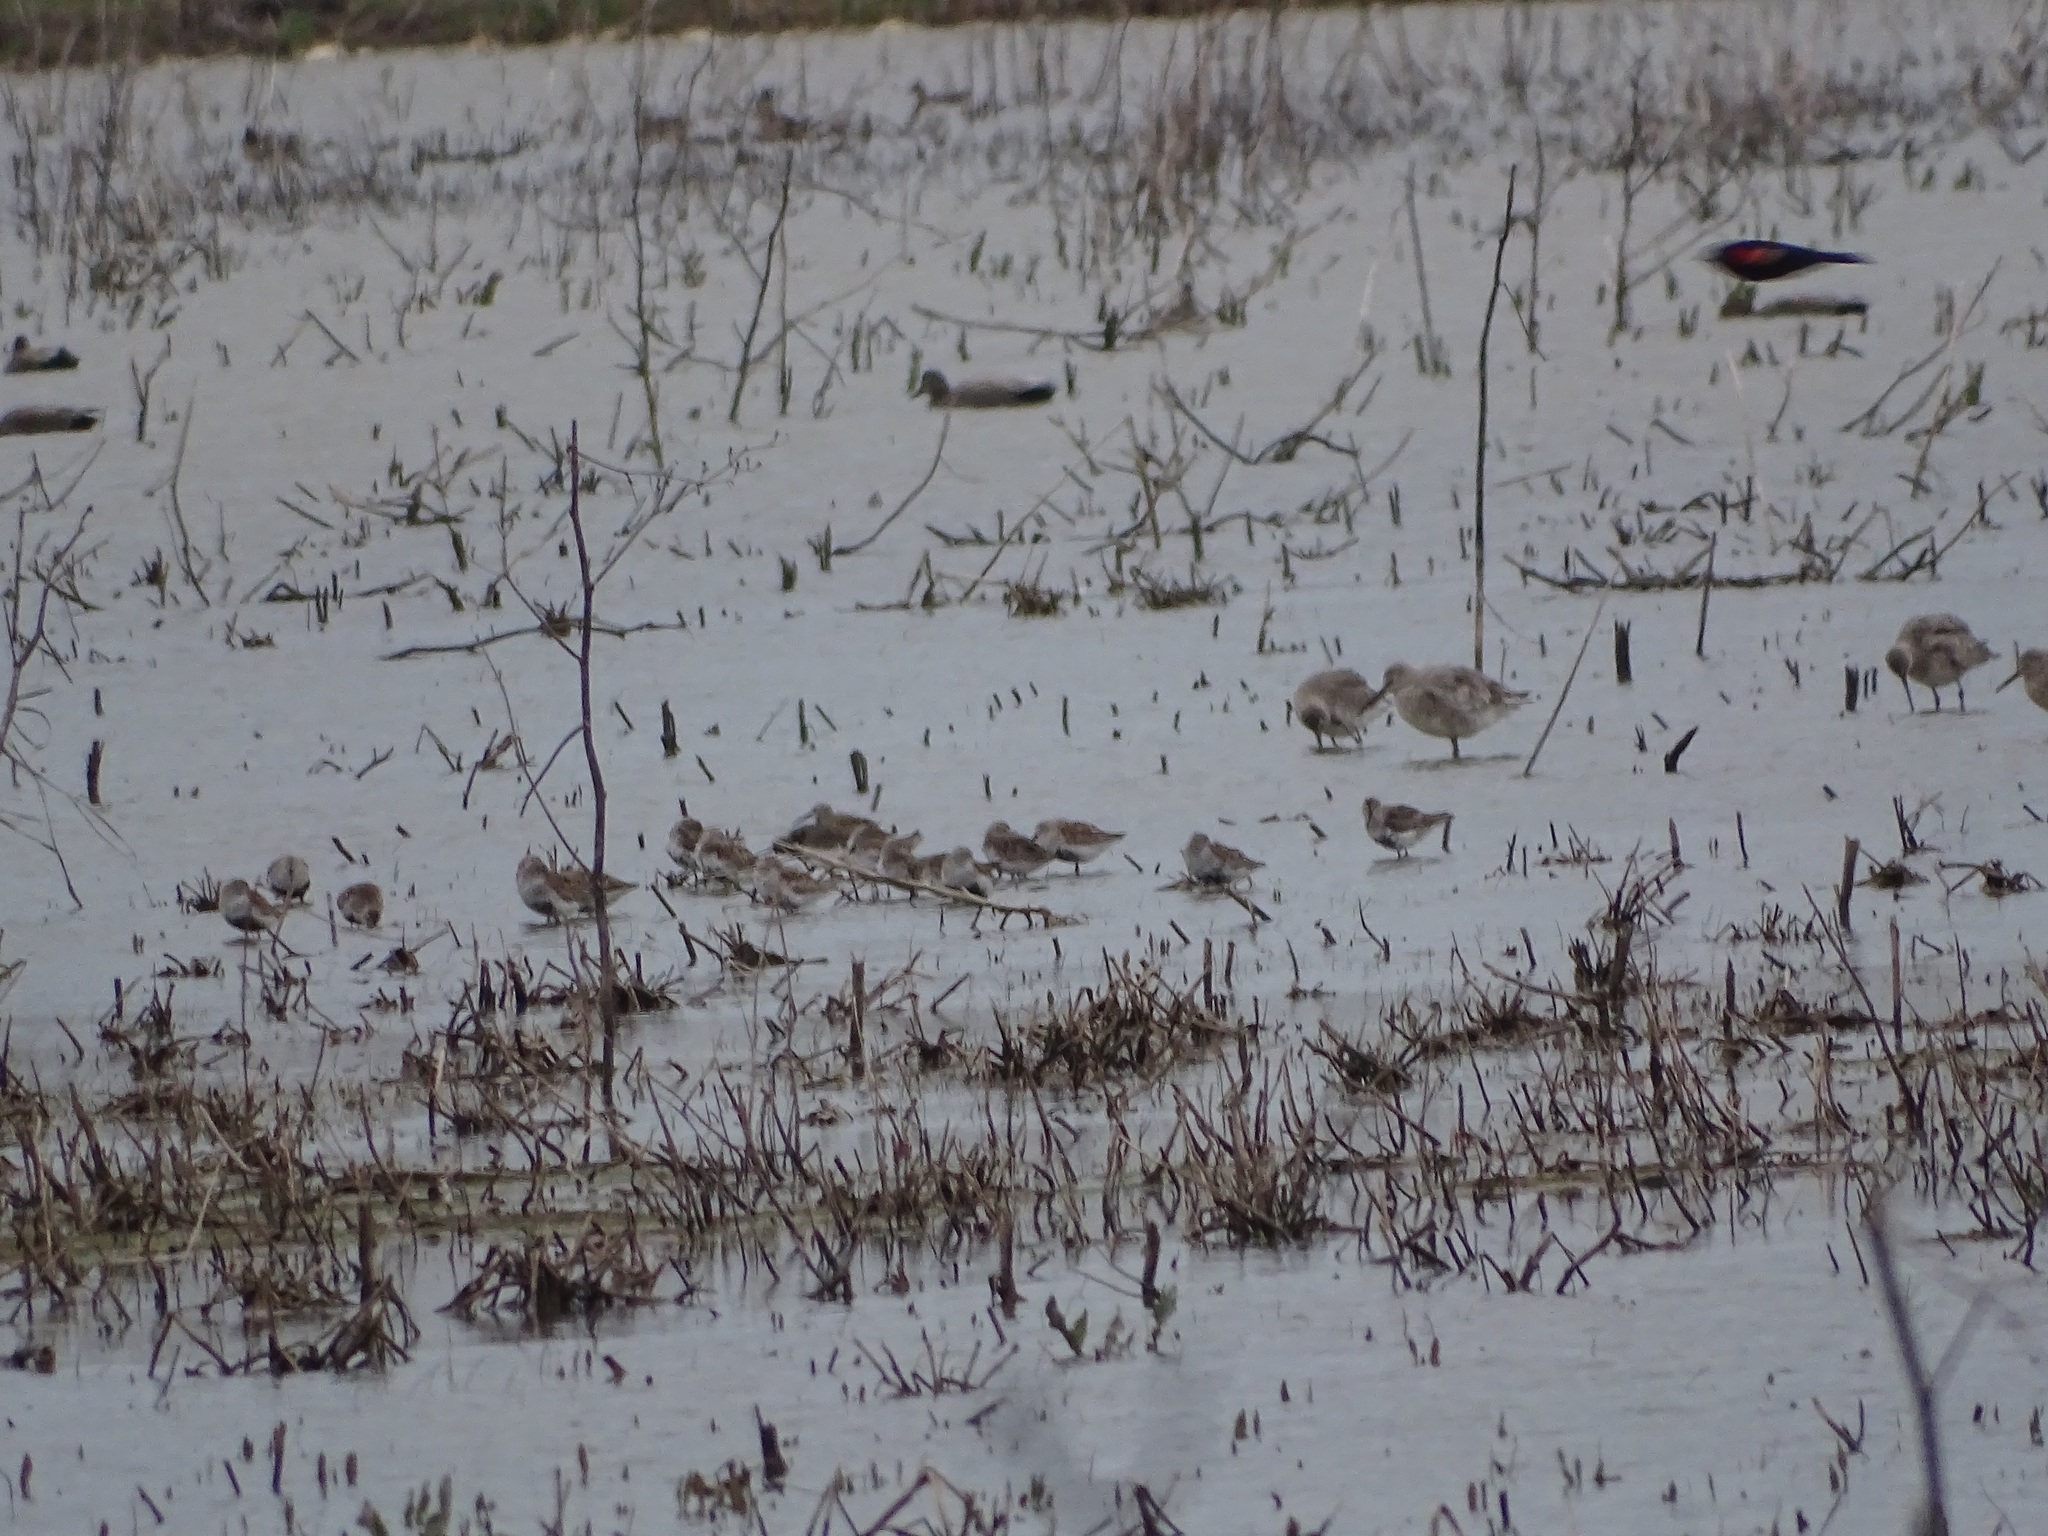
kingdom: Animalia
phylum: Chordata
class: Aves
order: Charadriiformes
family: Scolopacidae
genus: Calidris
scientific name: Calidris alpina
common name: Dunlin
